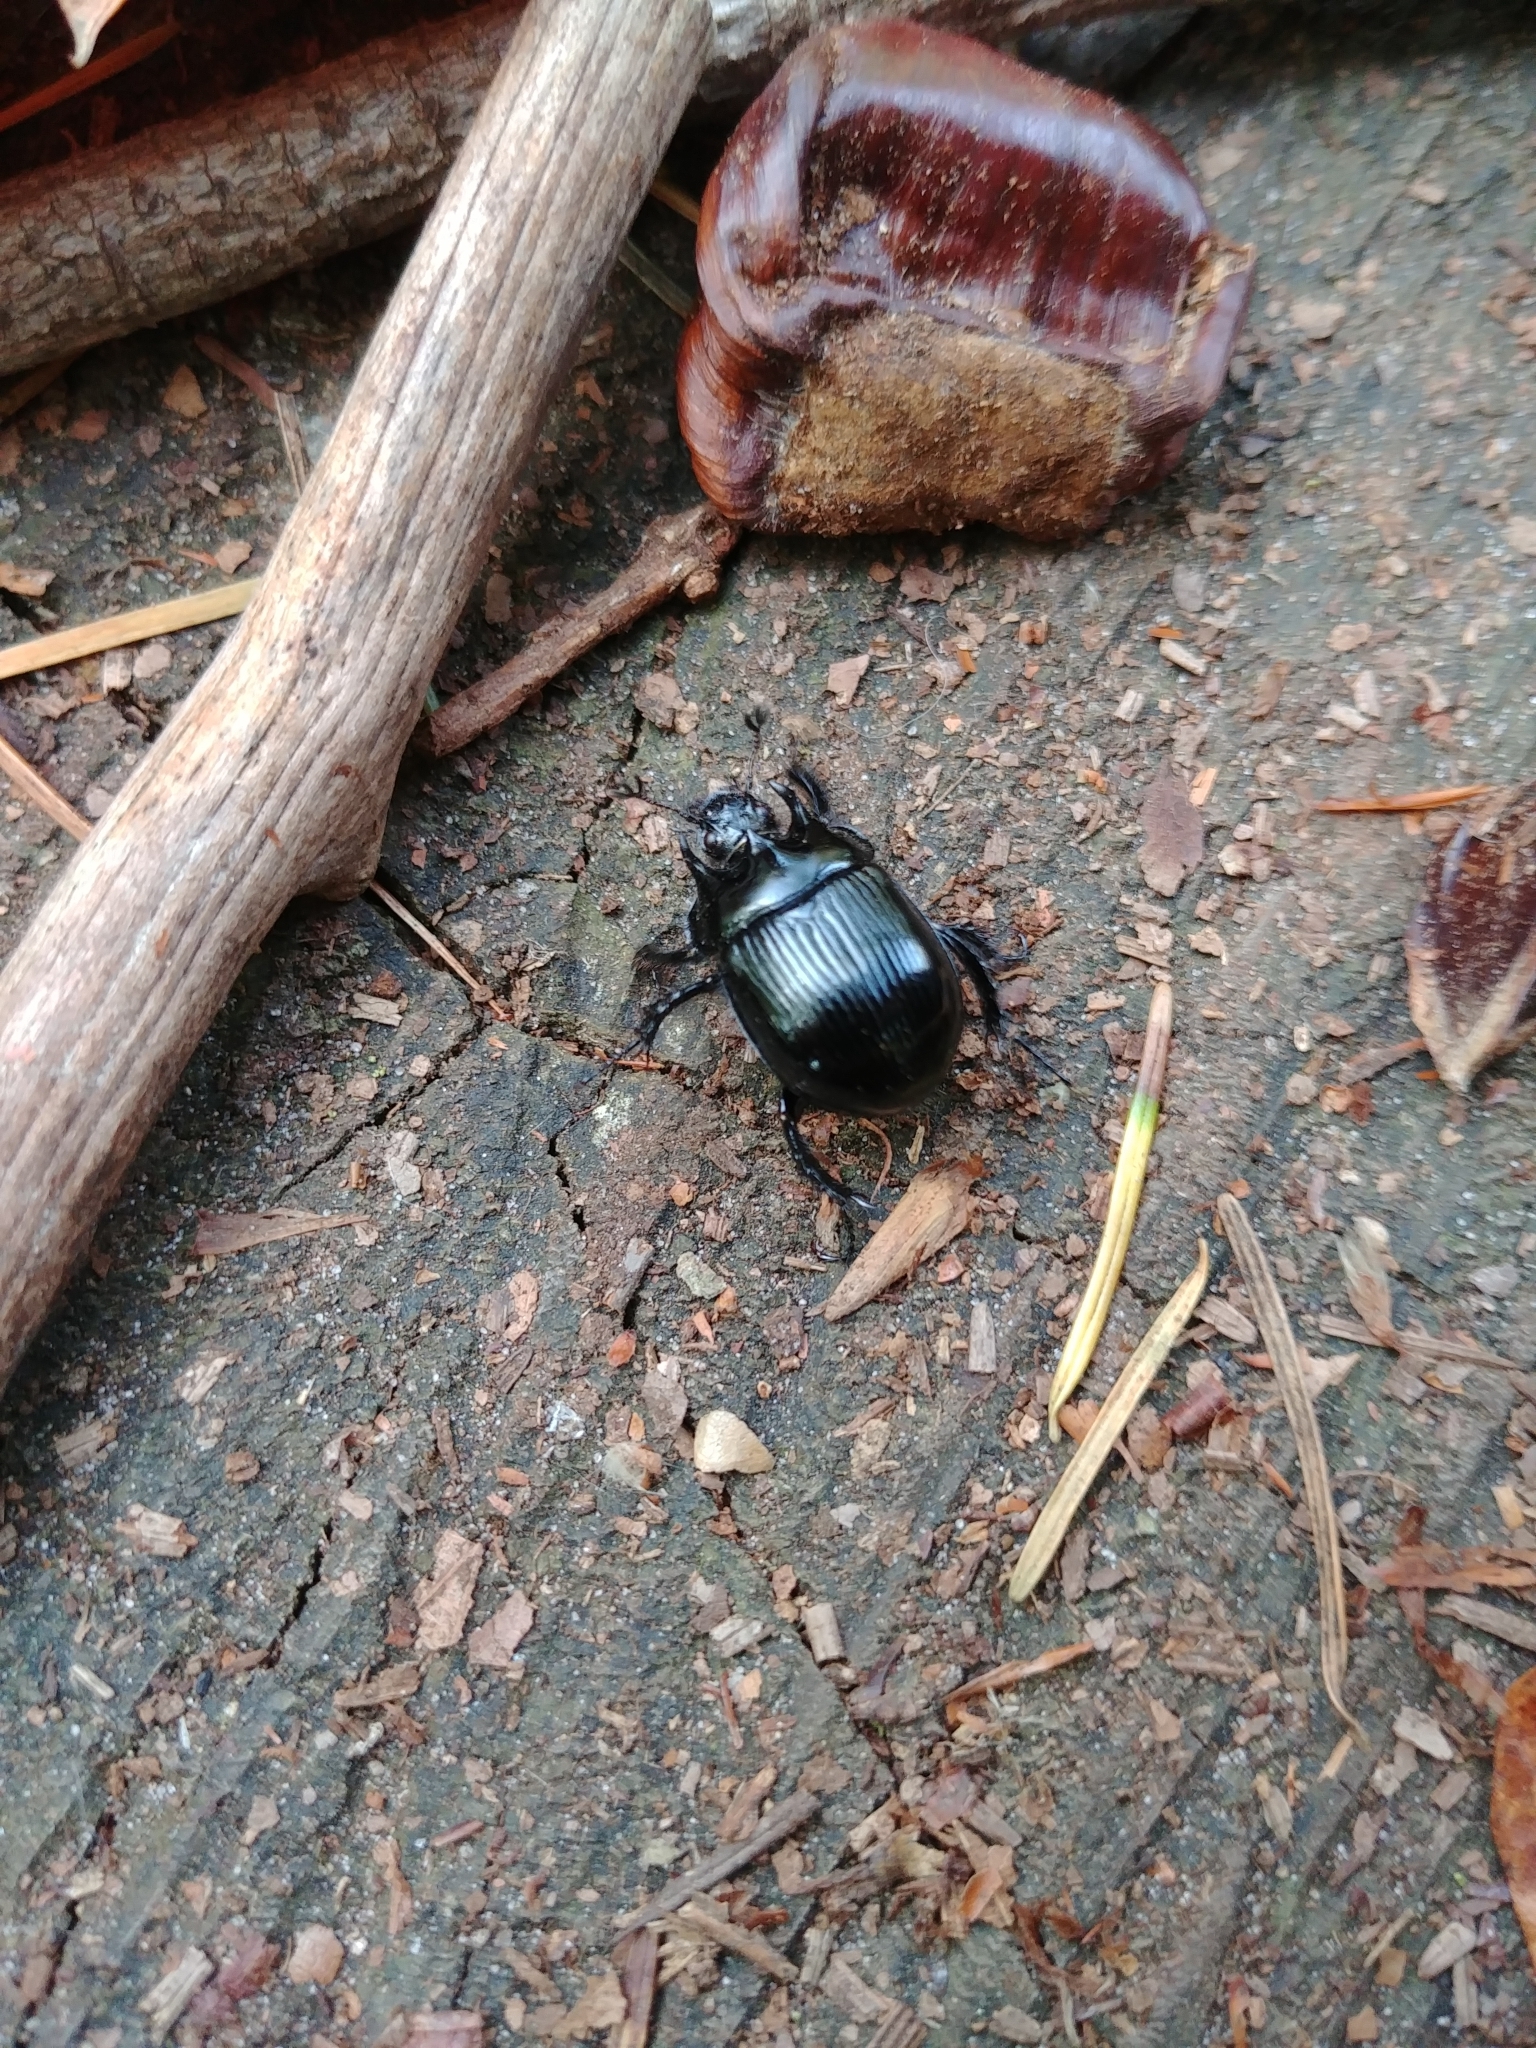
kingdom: Animalia
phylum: Arthropoda
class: Insecta
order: Coleoptera
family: Geotrupidae
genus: Typhaeus
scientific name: Typhaeus typhoeus
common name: Minotaur beetle
